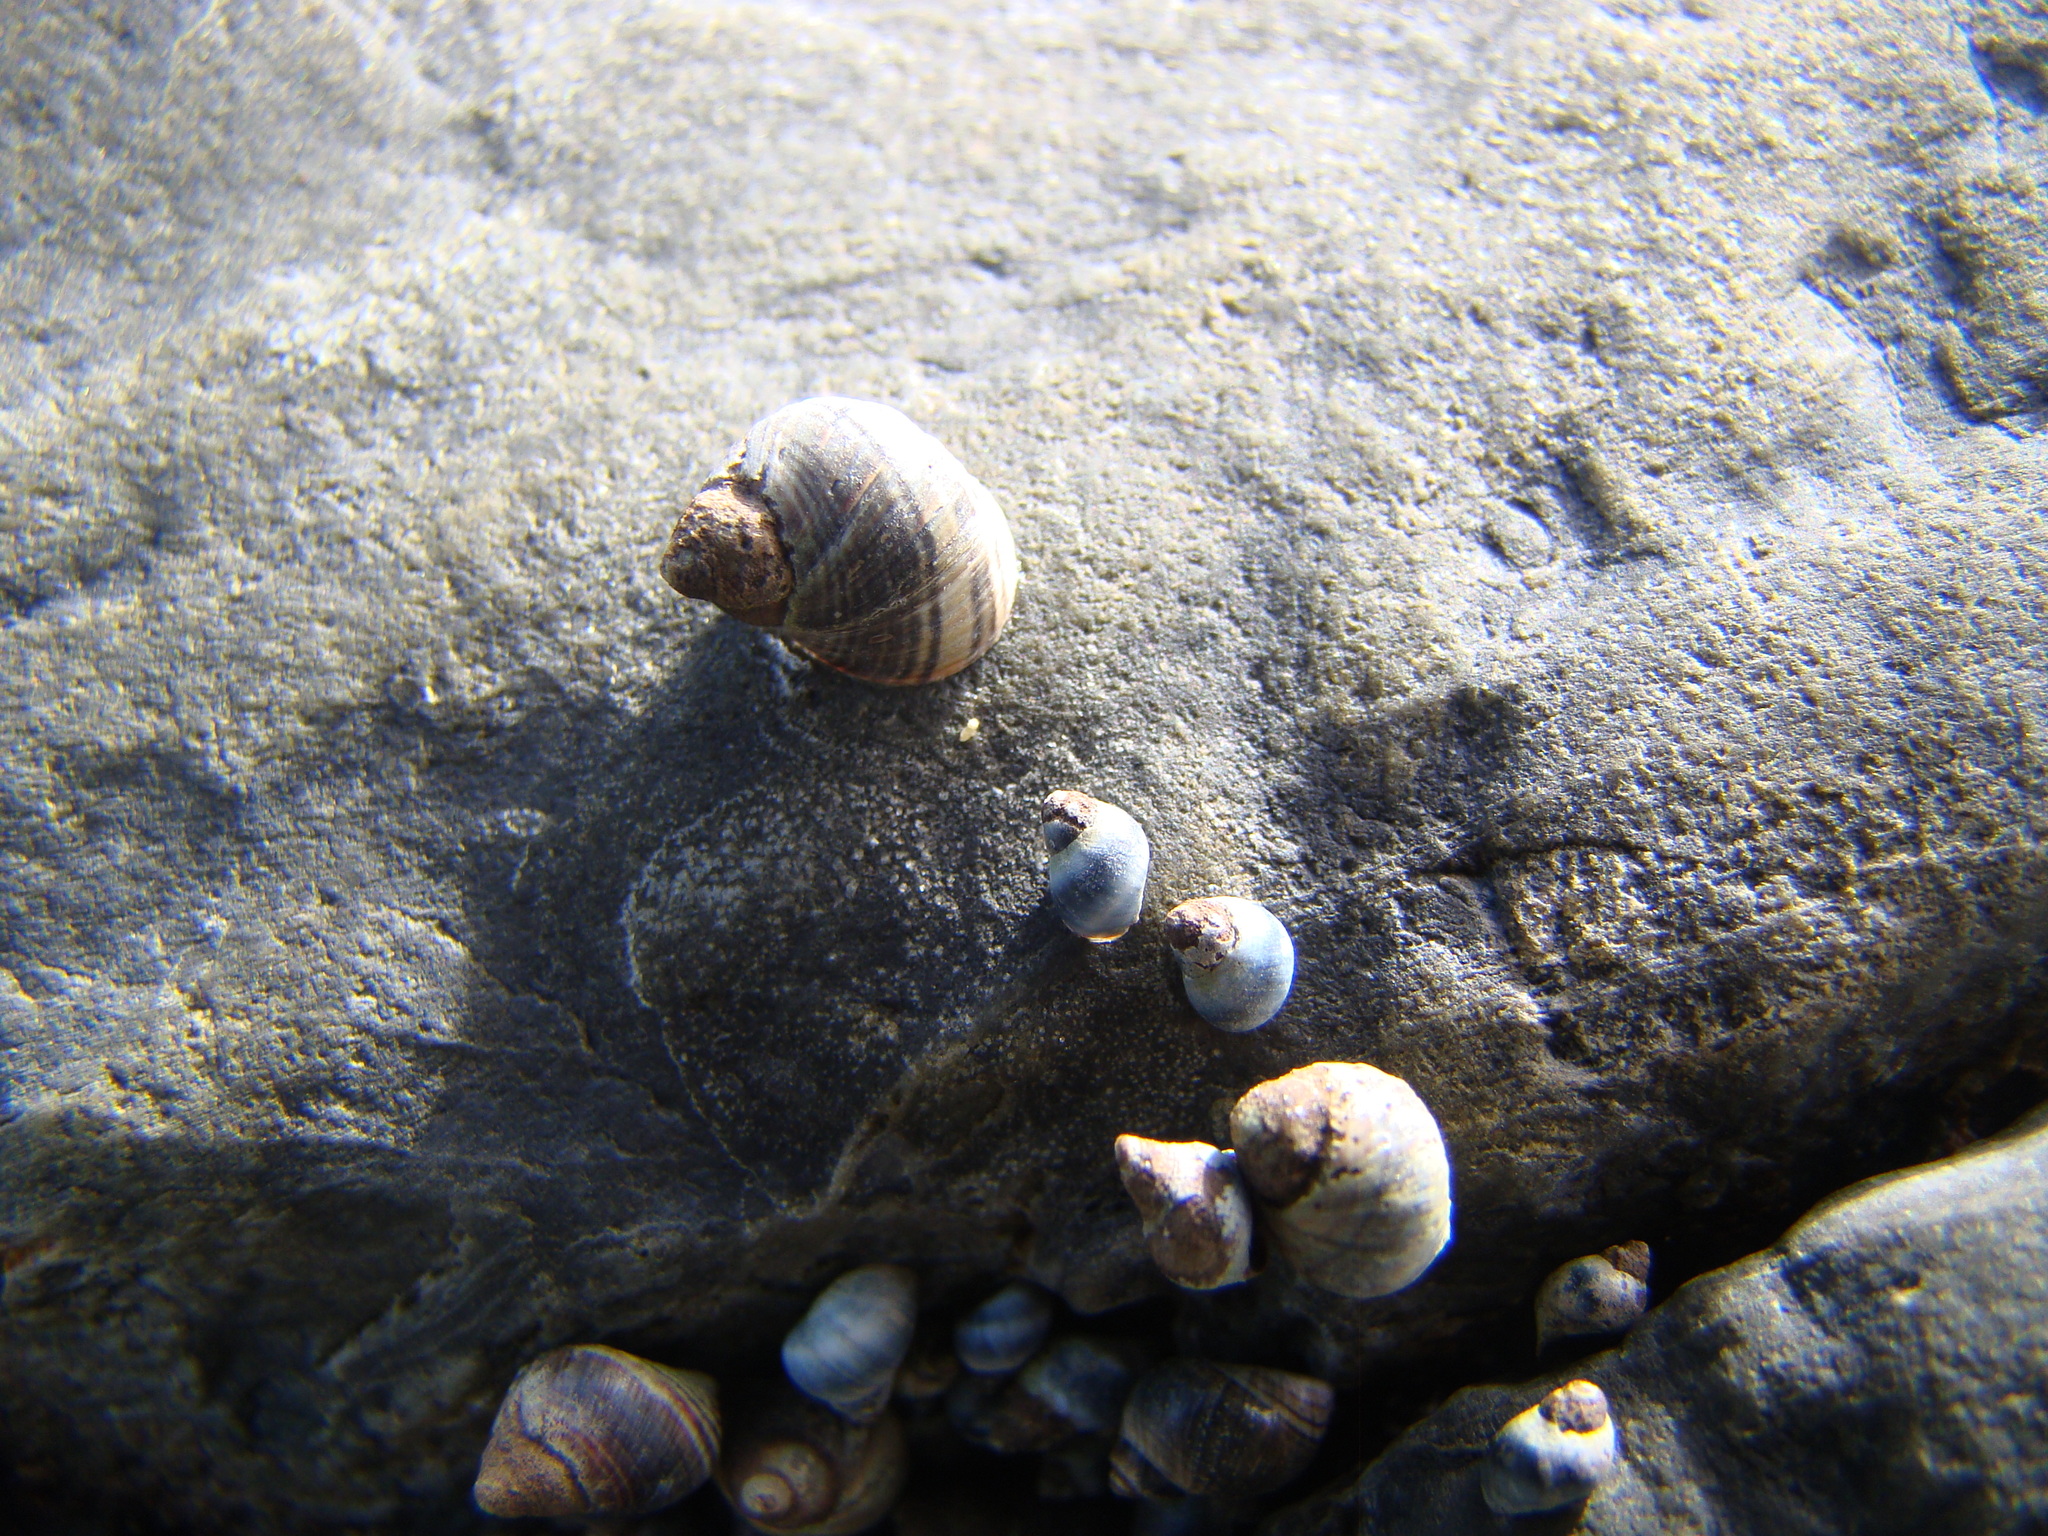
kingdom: Animalia
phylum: Mollusca
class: Gastropoda
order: Littorinimorpha
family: Littorinidae
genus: Austrolittorina
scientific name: Austrolittorina cincta
